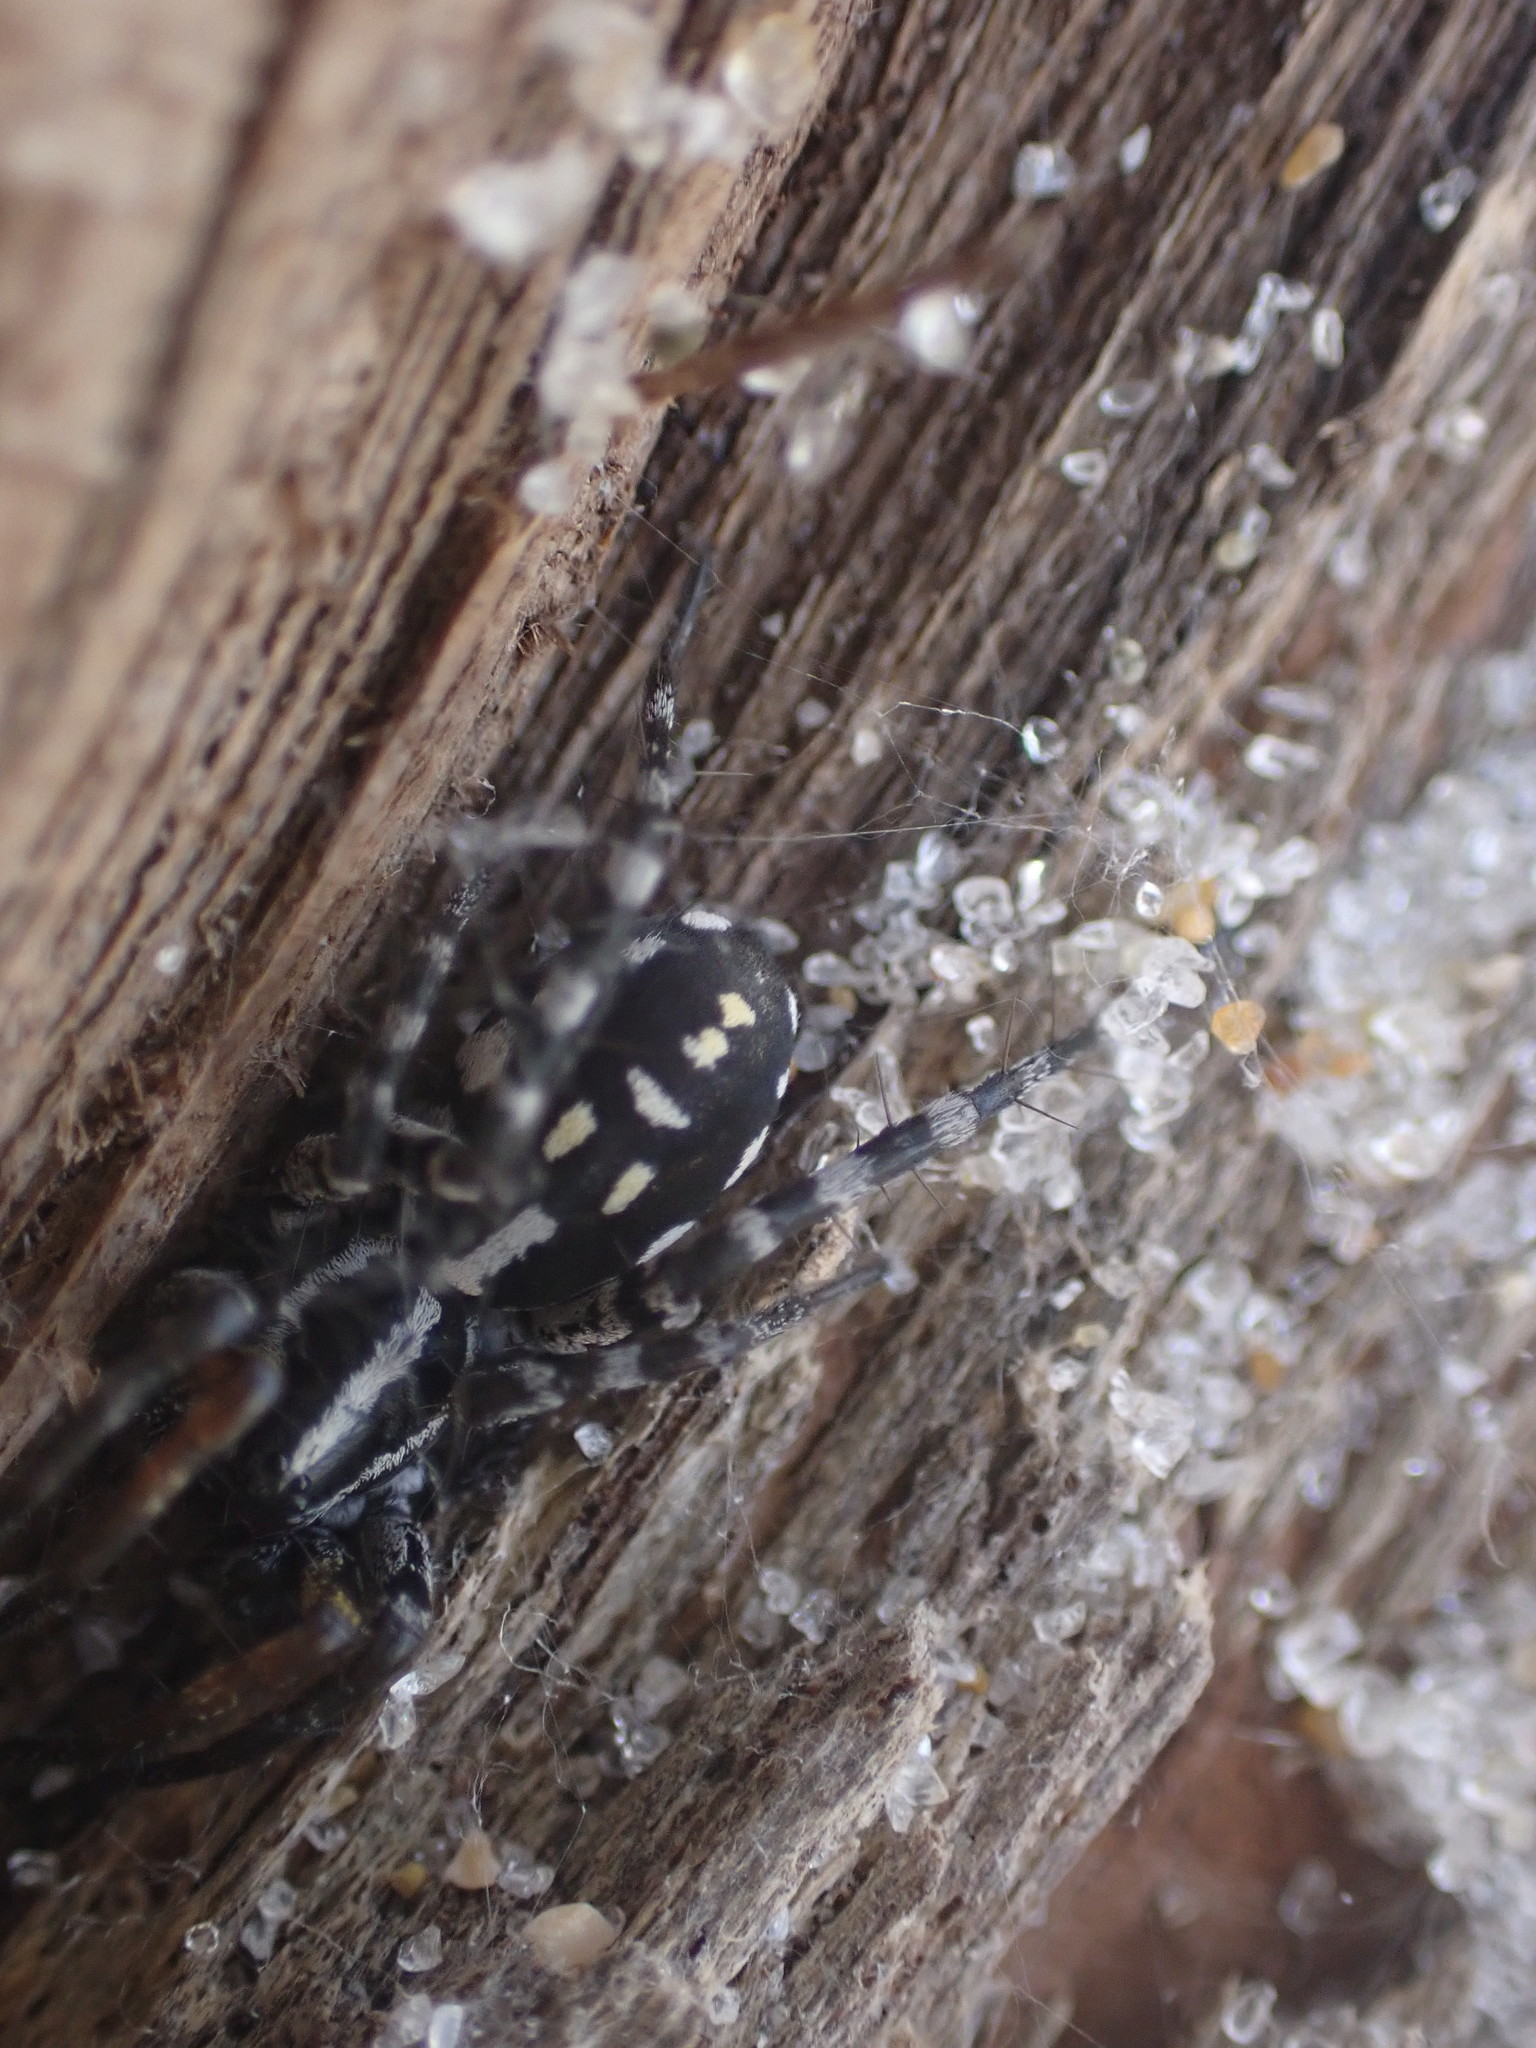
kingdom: Animalia
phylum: Arthropoda
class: Arachnida
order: Araneae
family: Corinnidae
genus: Nyssus
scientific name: Nyssus coloripes
